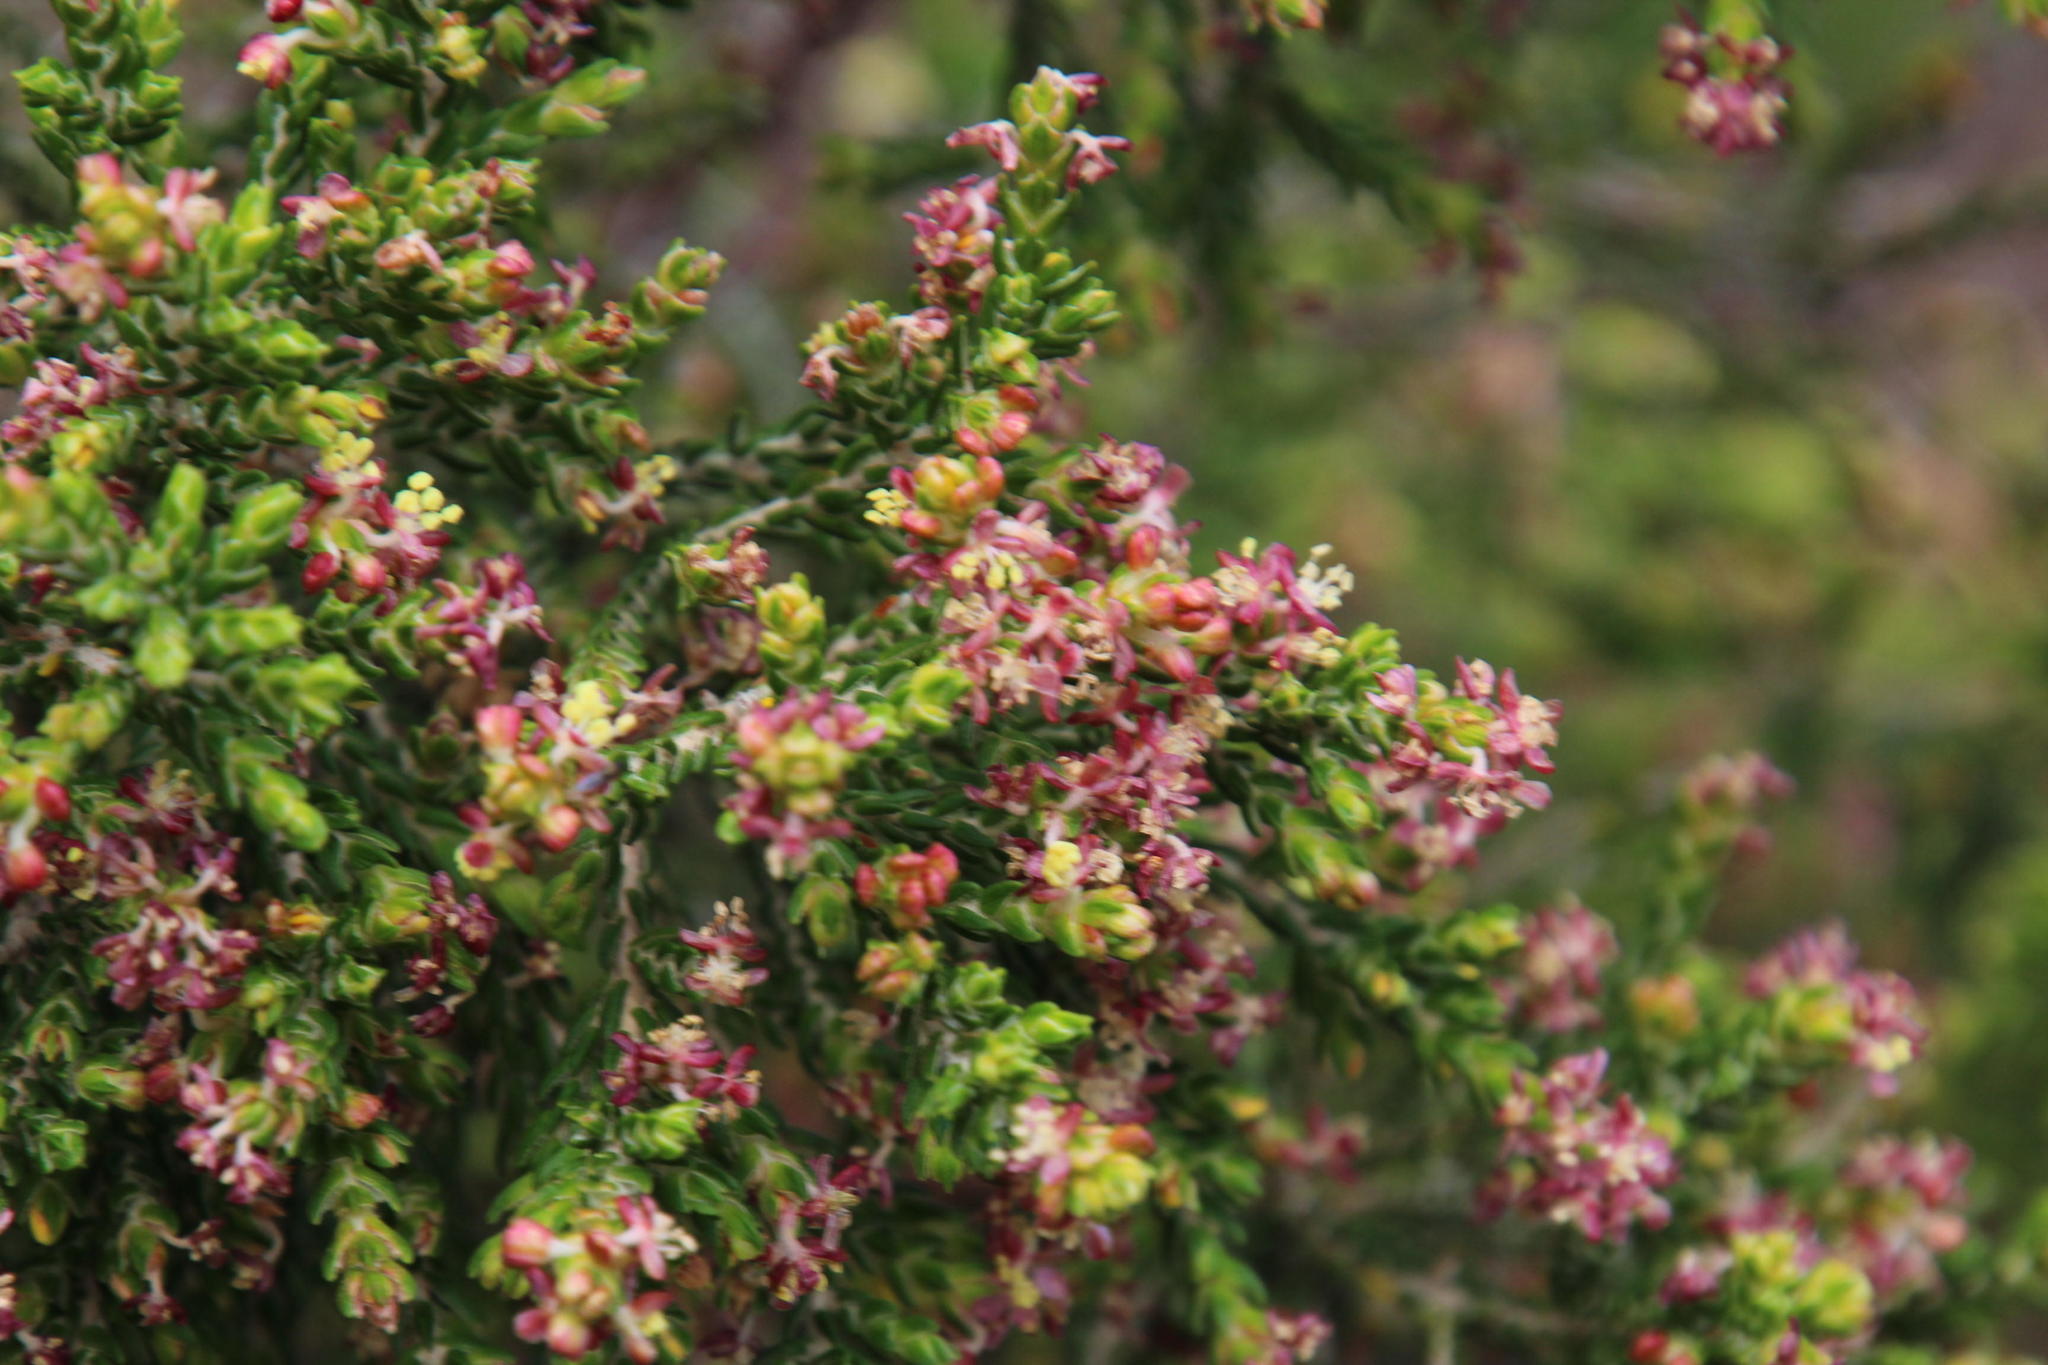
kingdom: Plantae
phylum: Tracheophyta
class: Magnoliopsida
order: Malvales
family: Thymelaeaceae
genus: Passerina
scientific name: Passerina corymbosa
